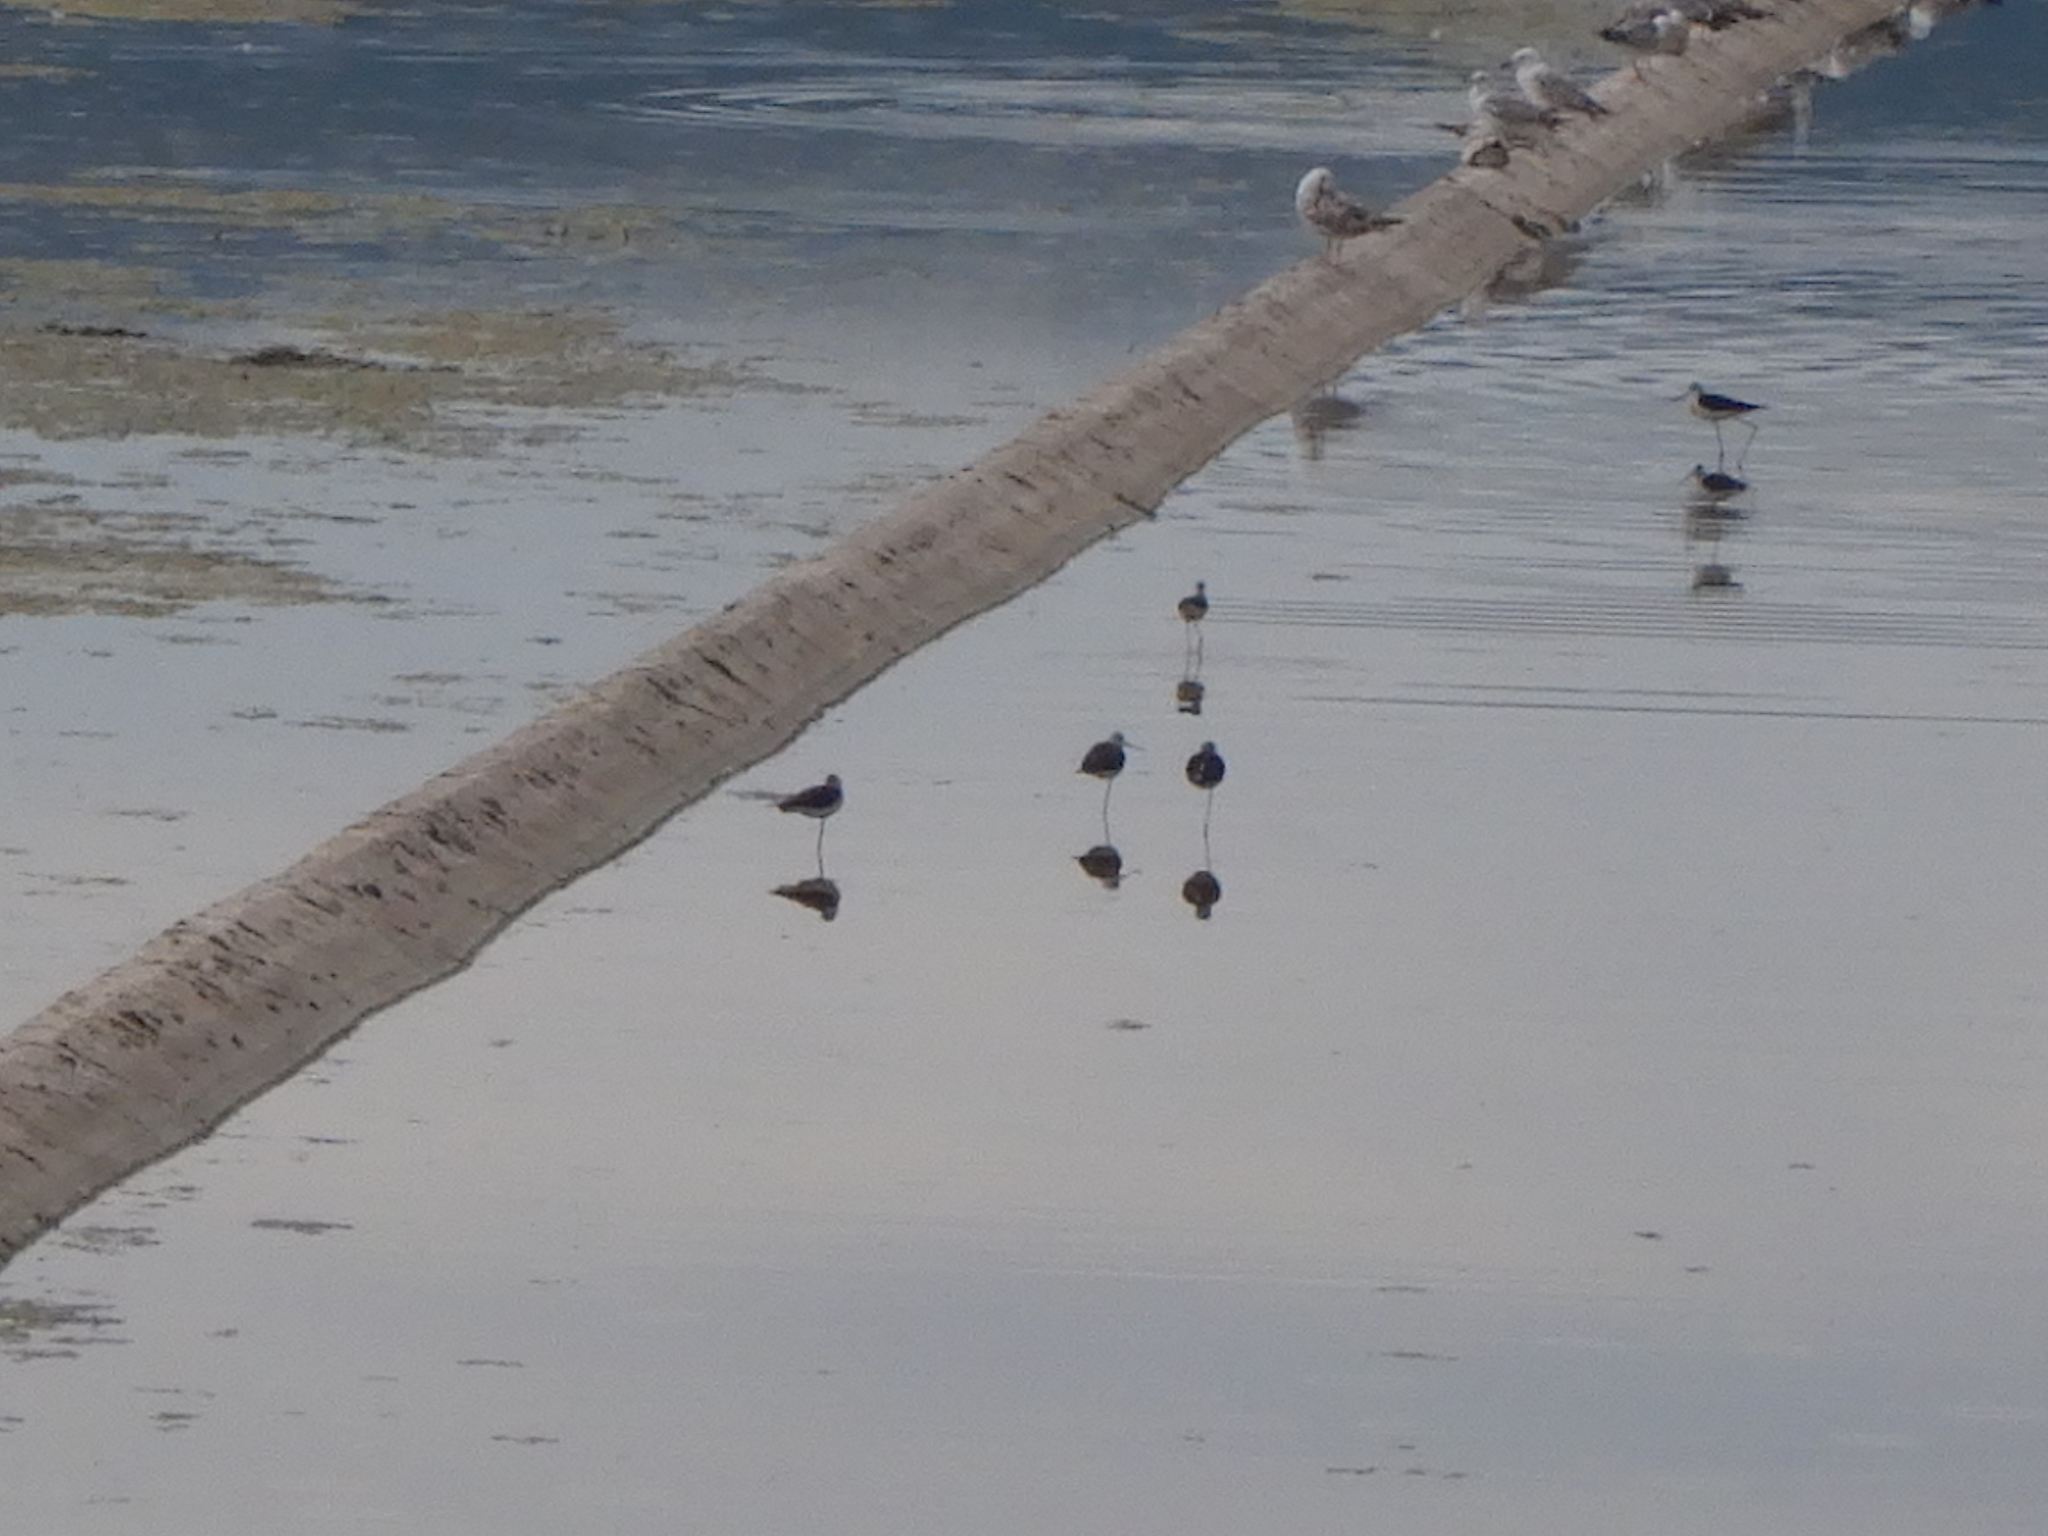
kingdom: Animalia
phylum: Chordata
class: Aves
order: Charadriiformes
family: Recurvirostridae
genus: Himantopus
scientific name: Himantopus himantopus
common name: Black-winged stilt
